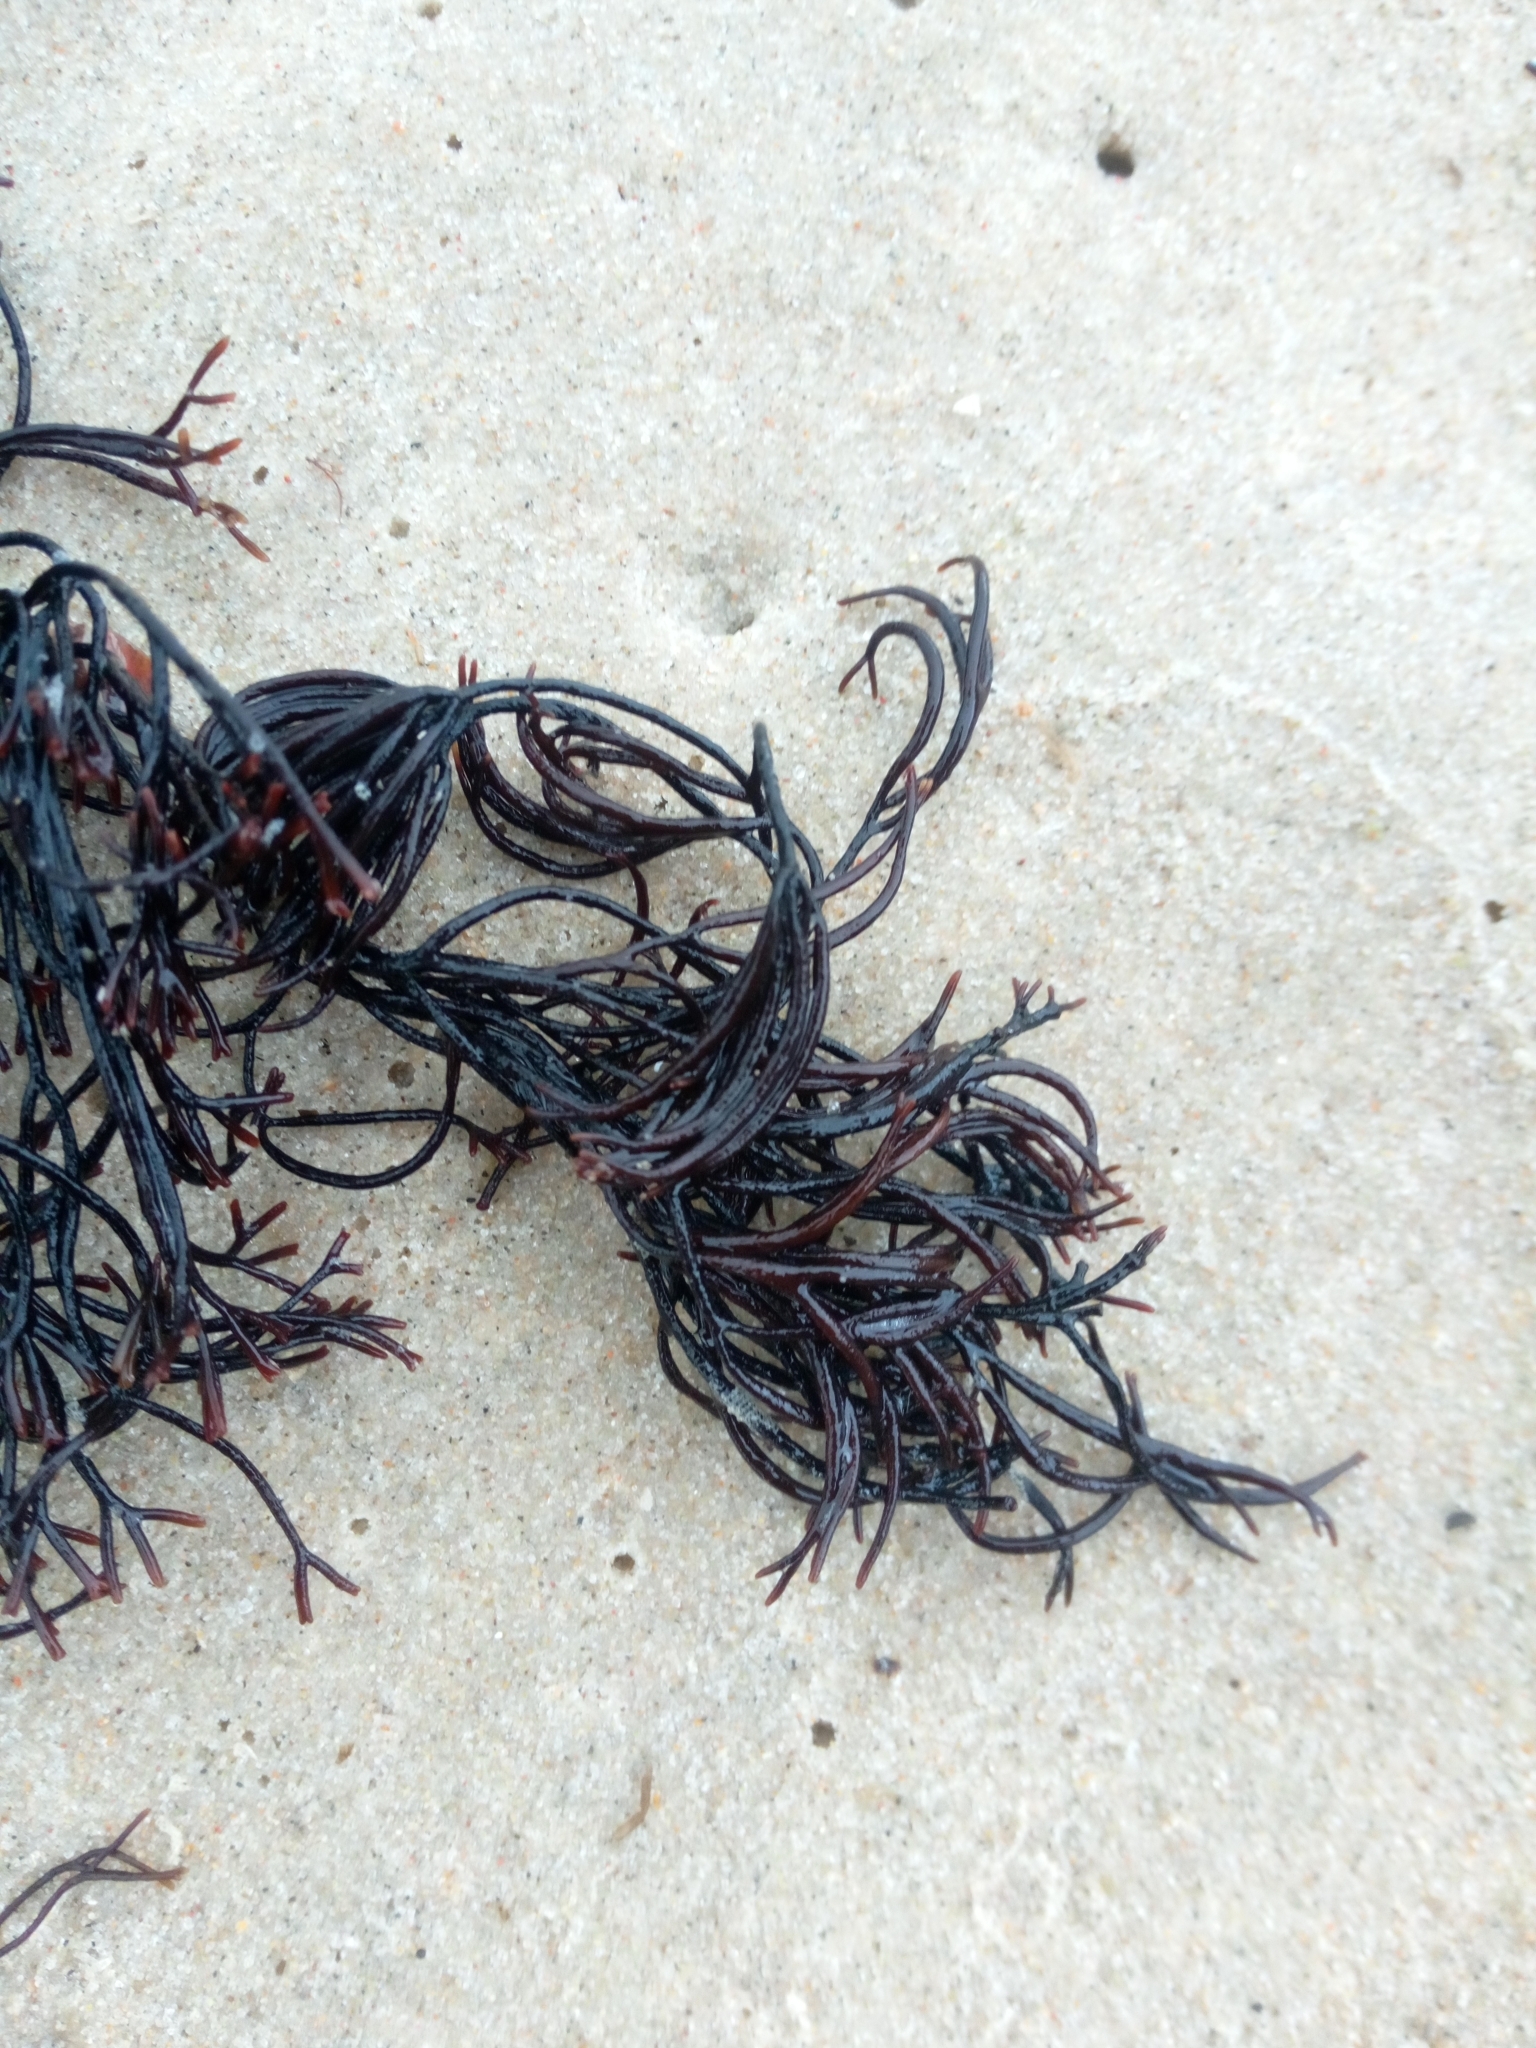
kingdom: Plantae
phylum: Rhodophyta
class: Florideophyceae
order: Gigartinales
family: Furcellariaceae
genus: Furcellaria
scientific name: Furcellaria lumbricalis
